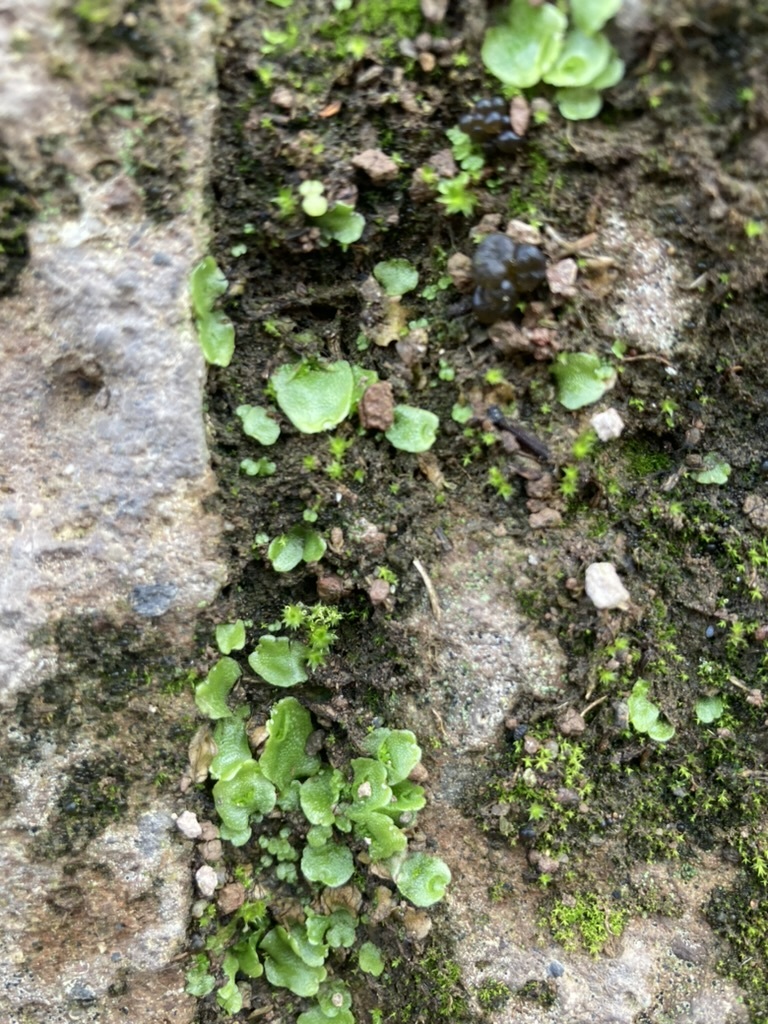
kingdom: Plantae
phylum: Marchantiophyta
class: Marchantiopsida
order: Lunulariales
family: Lunulariaceae
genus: Lunularia
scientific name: Lunularia cruciata
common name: Crescent-cup liverwort
